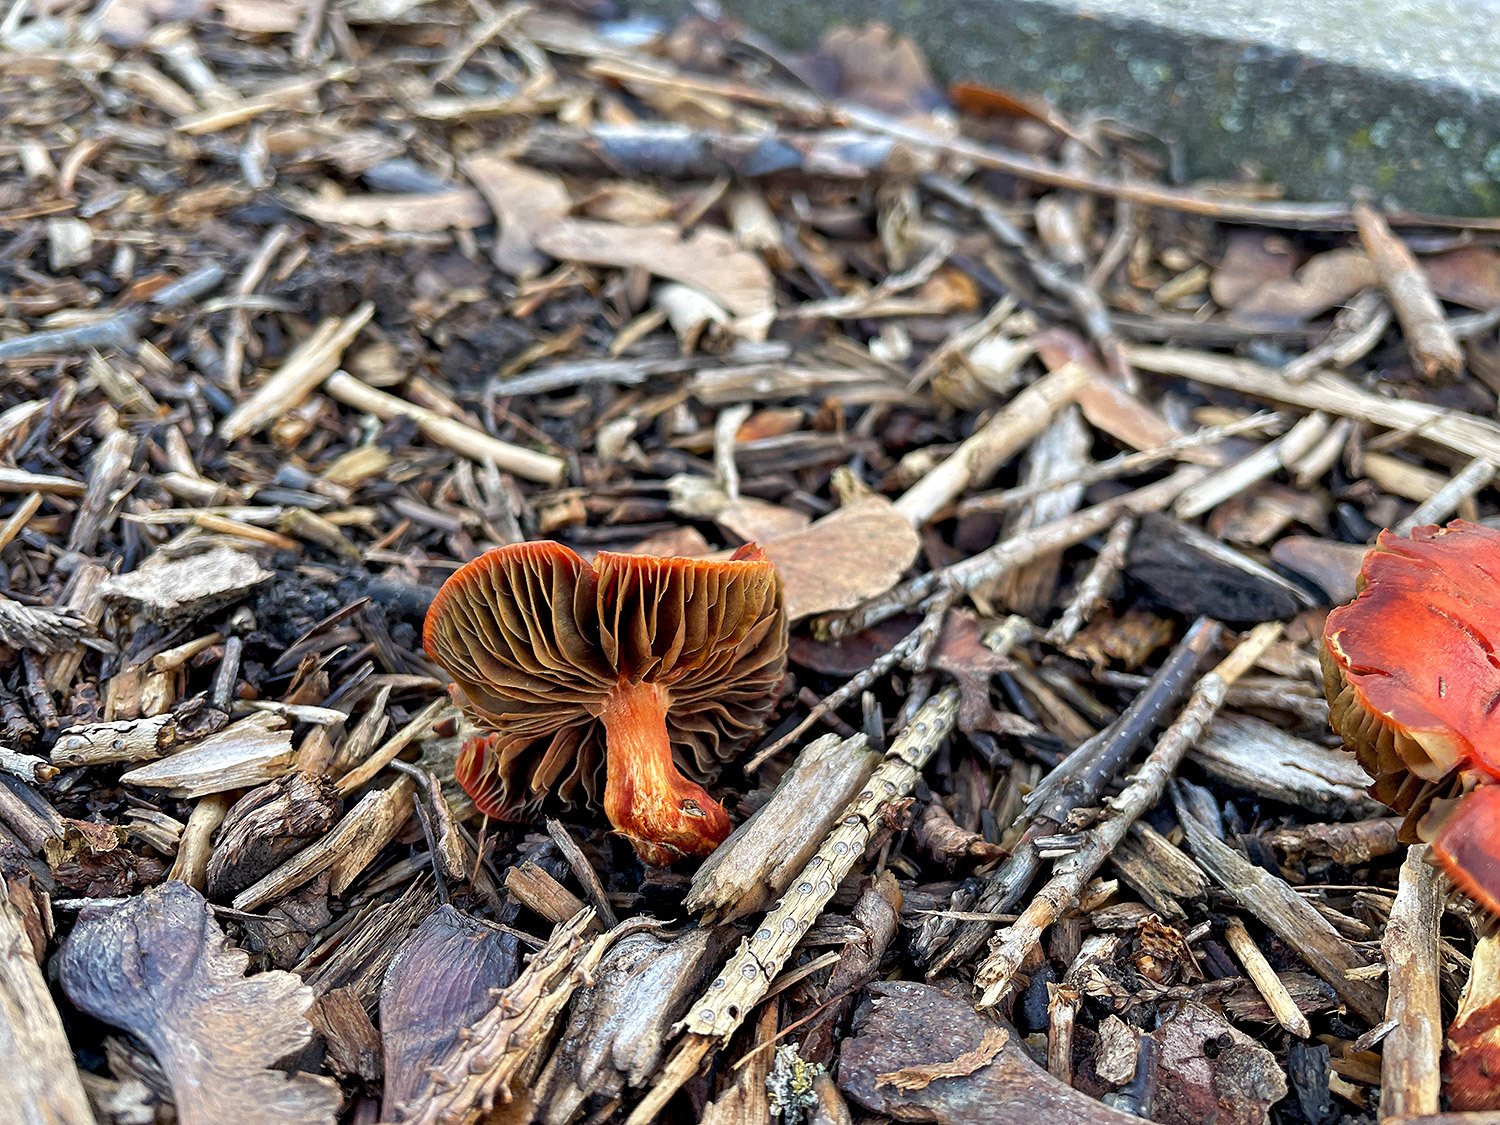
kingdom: Fungi
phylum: Basidiomycota
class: Agaricomycetes
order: Agaricales
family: Strophariaceae
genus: Leratiomyces
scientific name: Leratiomyces ceres
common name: Redlead roundhead
